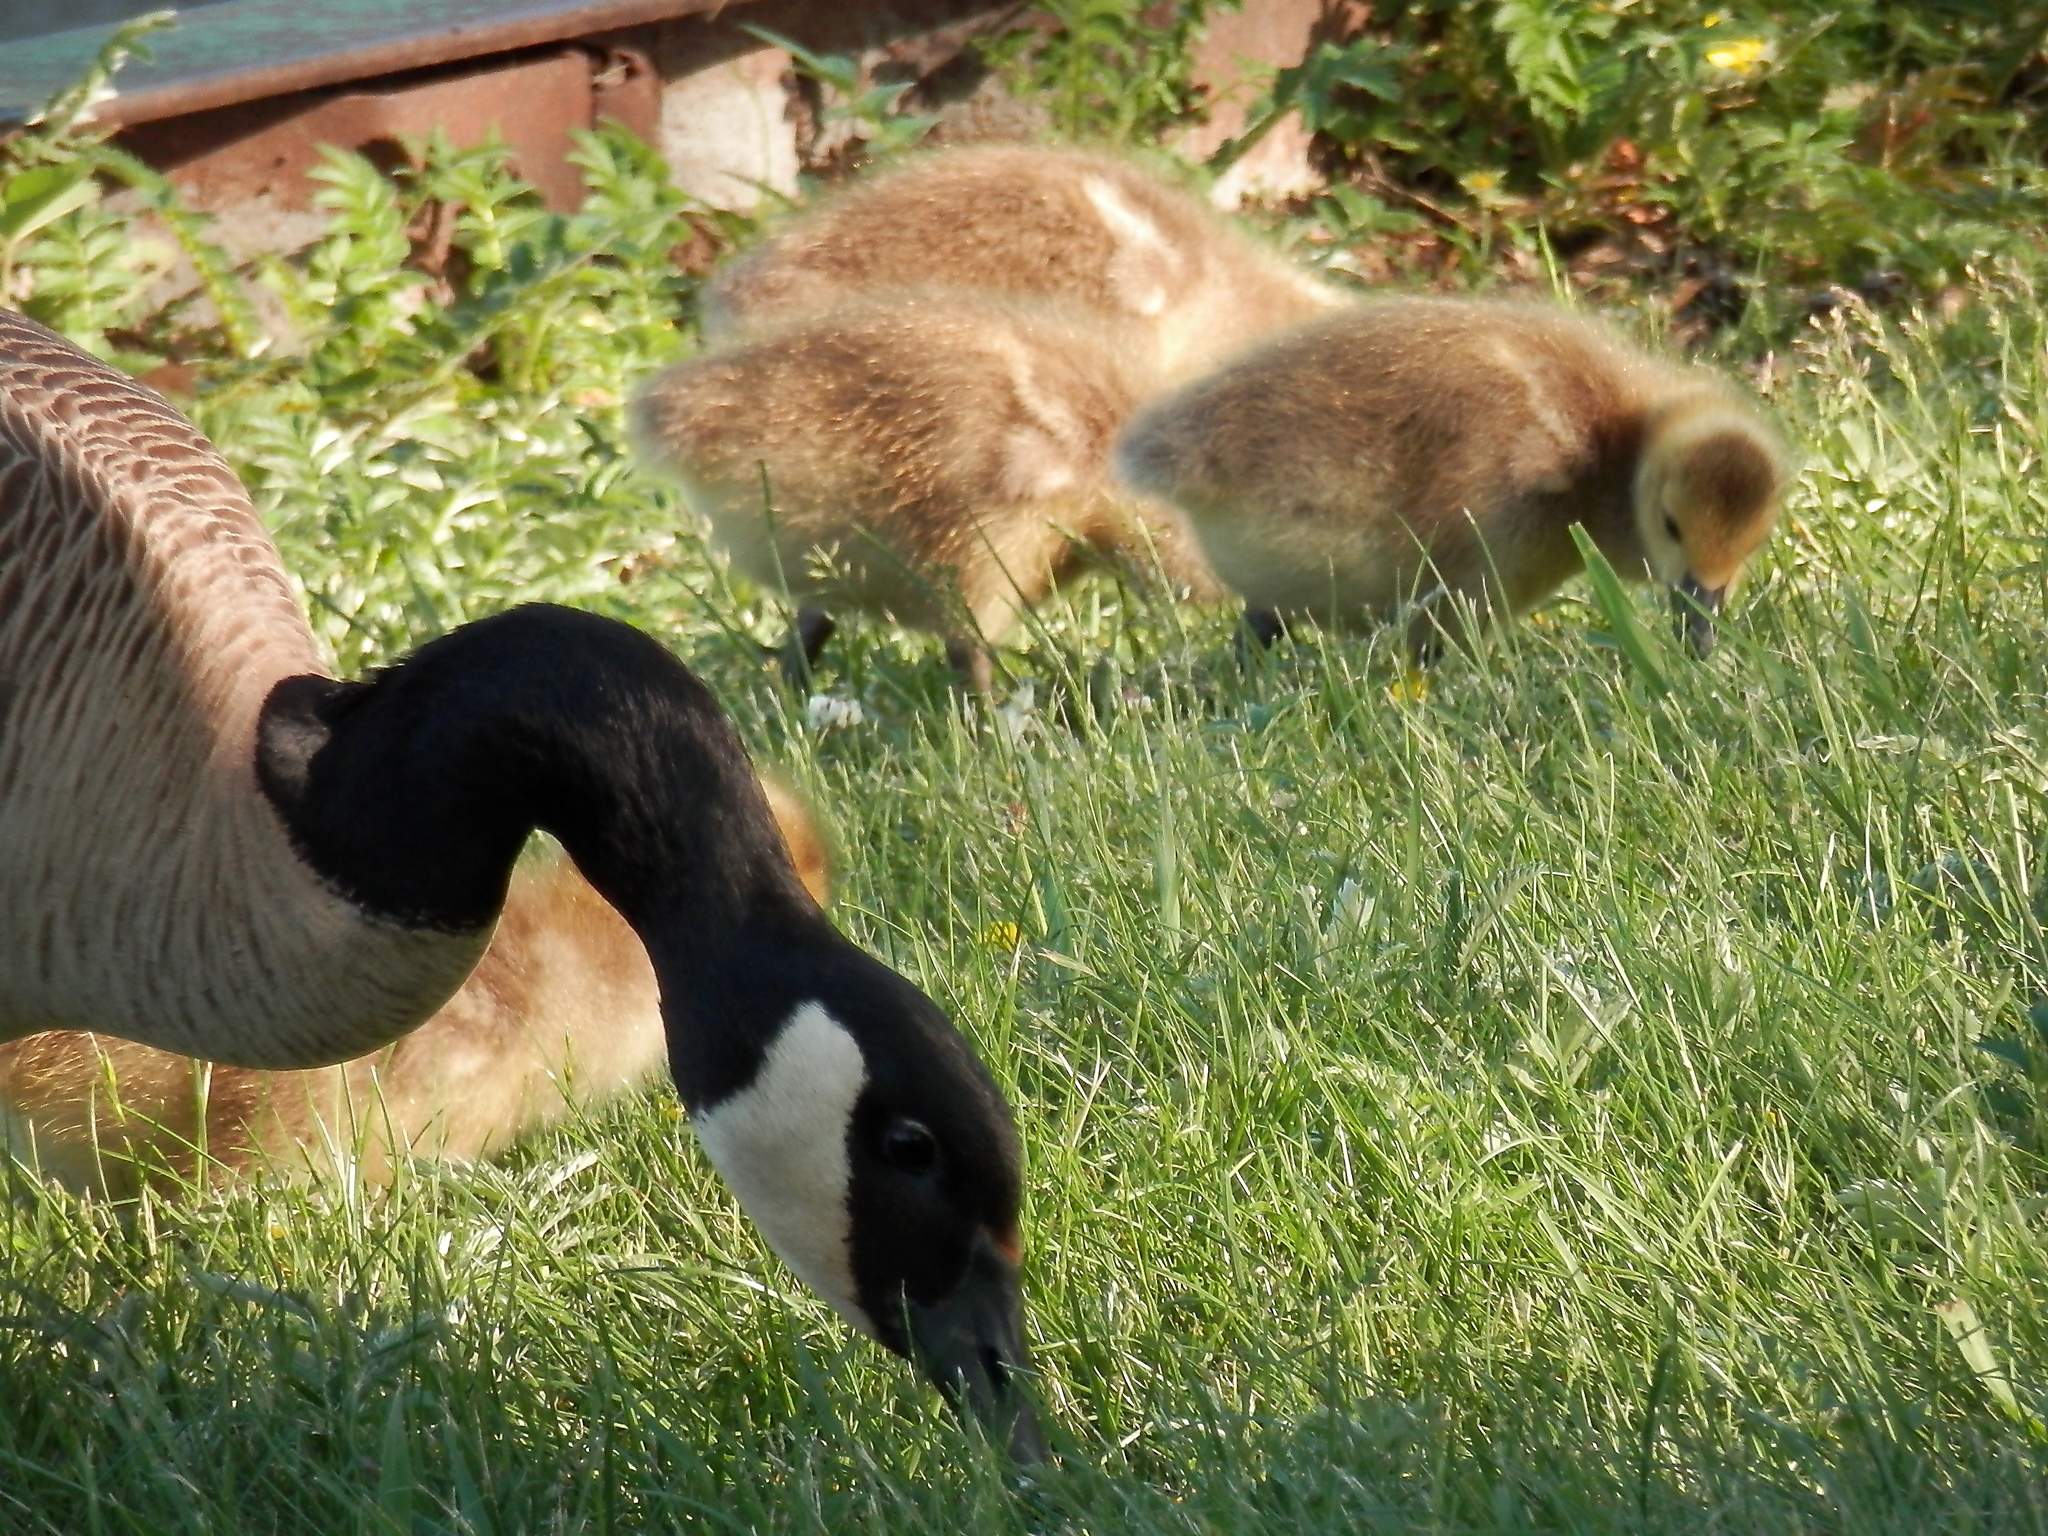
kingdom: Animalia
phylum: Chordata
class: Aves
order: Anseriformes
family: Anatidae
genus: Branta
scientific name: Branta canadensis
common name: Canada goose
